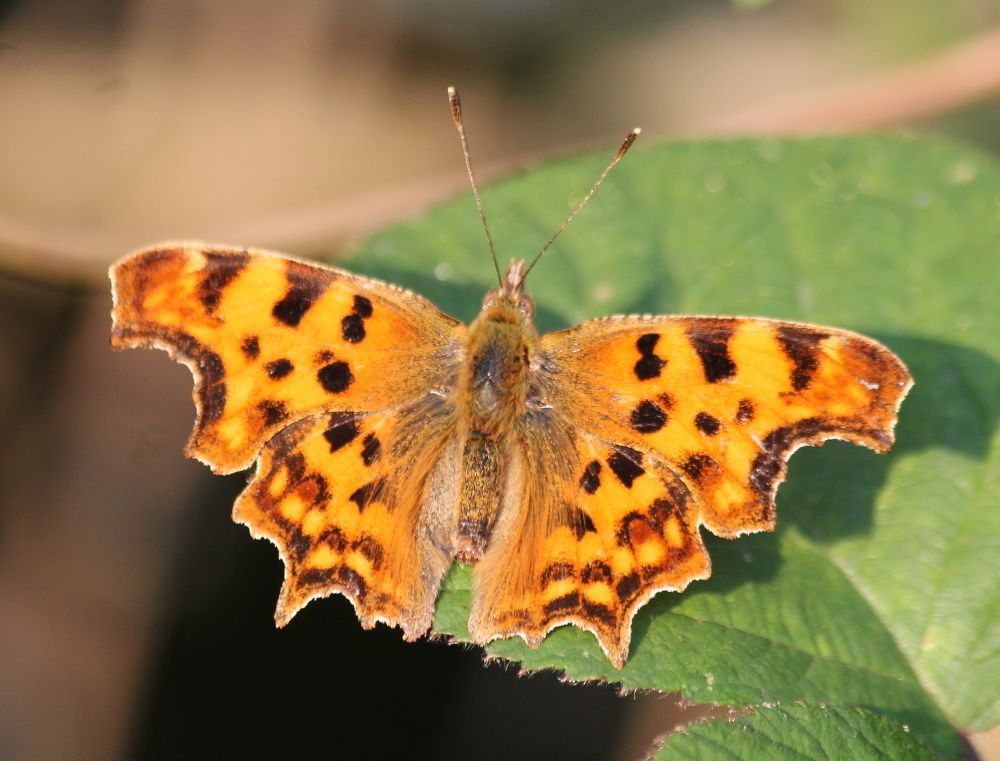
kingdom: Animalia
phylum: Arthropoda
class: Insecta
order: Lepidoptera
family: Nymphalidae
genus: Polygonia
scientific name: Polygonia c-album
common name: Comma
